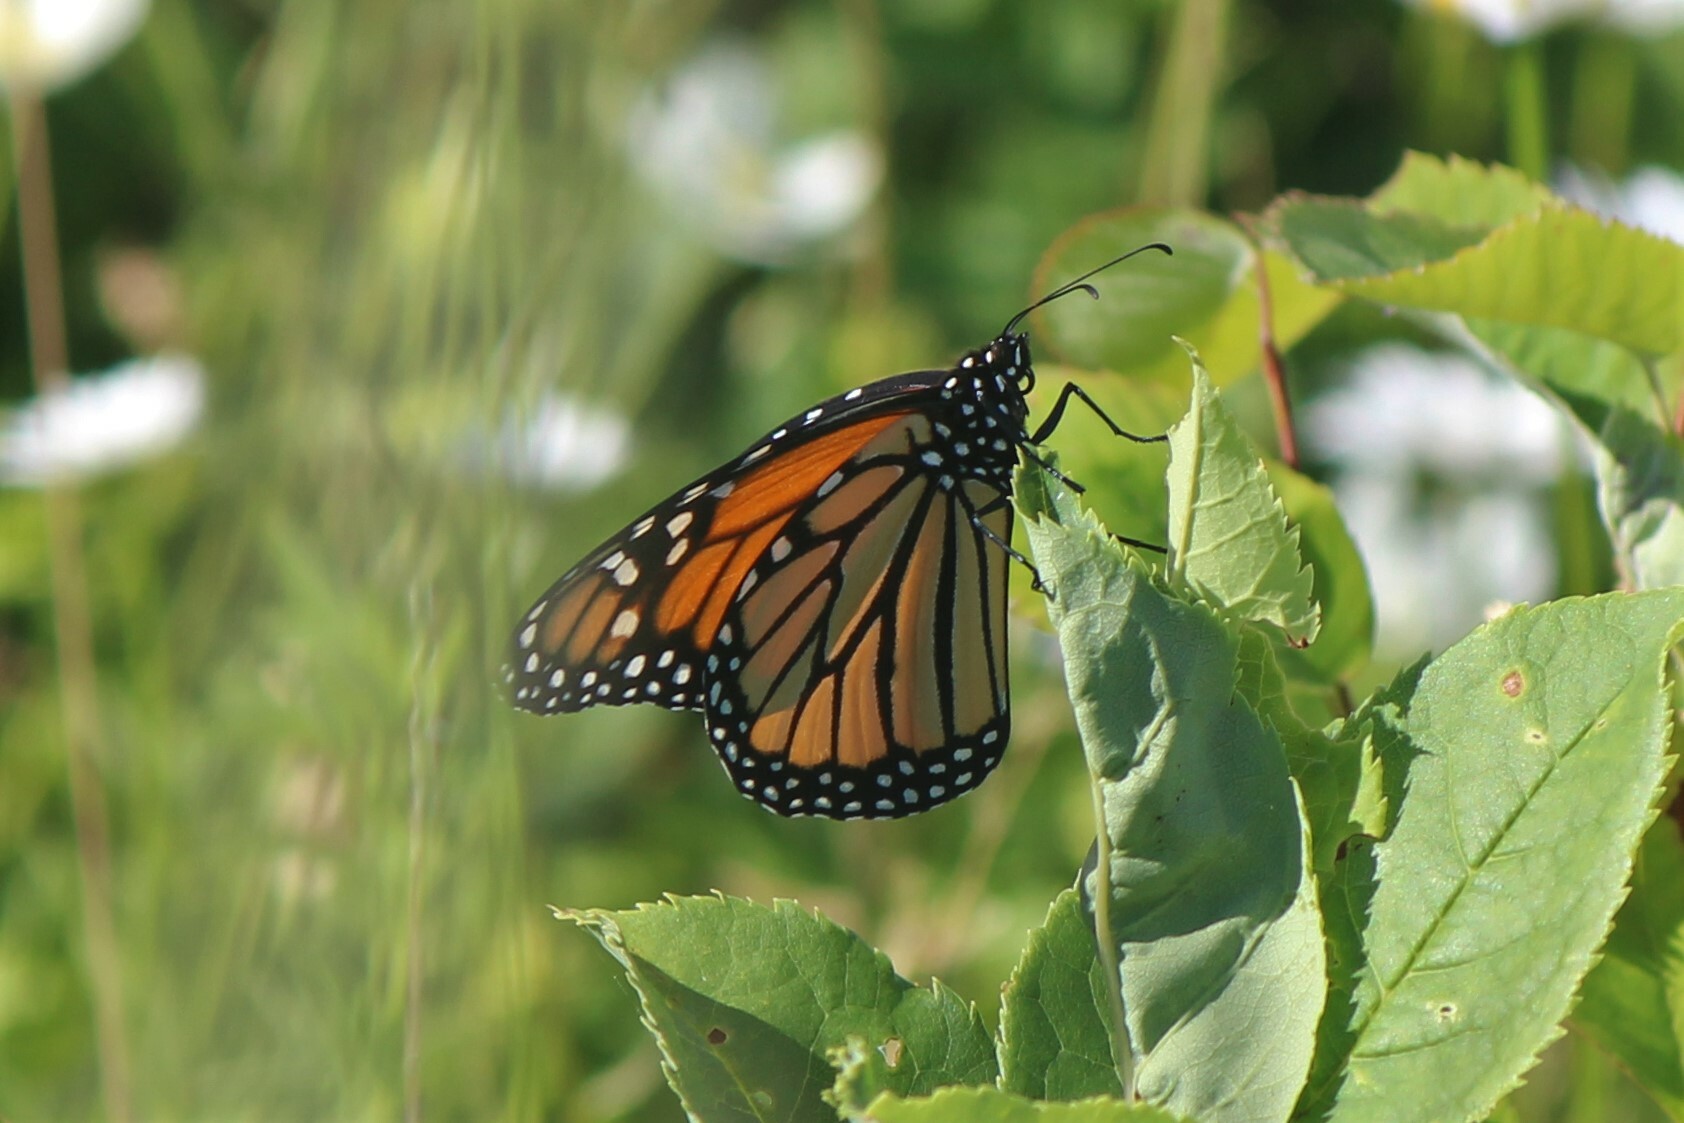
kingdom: Animalia
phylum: Arthropoda
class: Insecta
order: Lepidoptera
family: Nymphalidae
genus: Danaus
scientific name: Danaus plexippus
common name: Monarch
